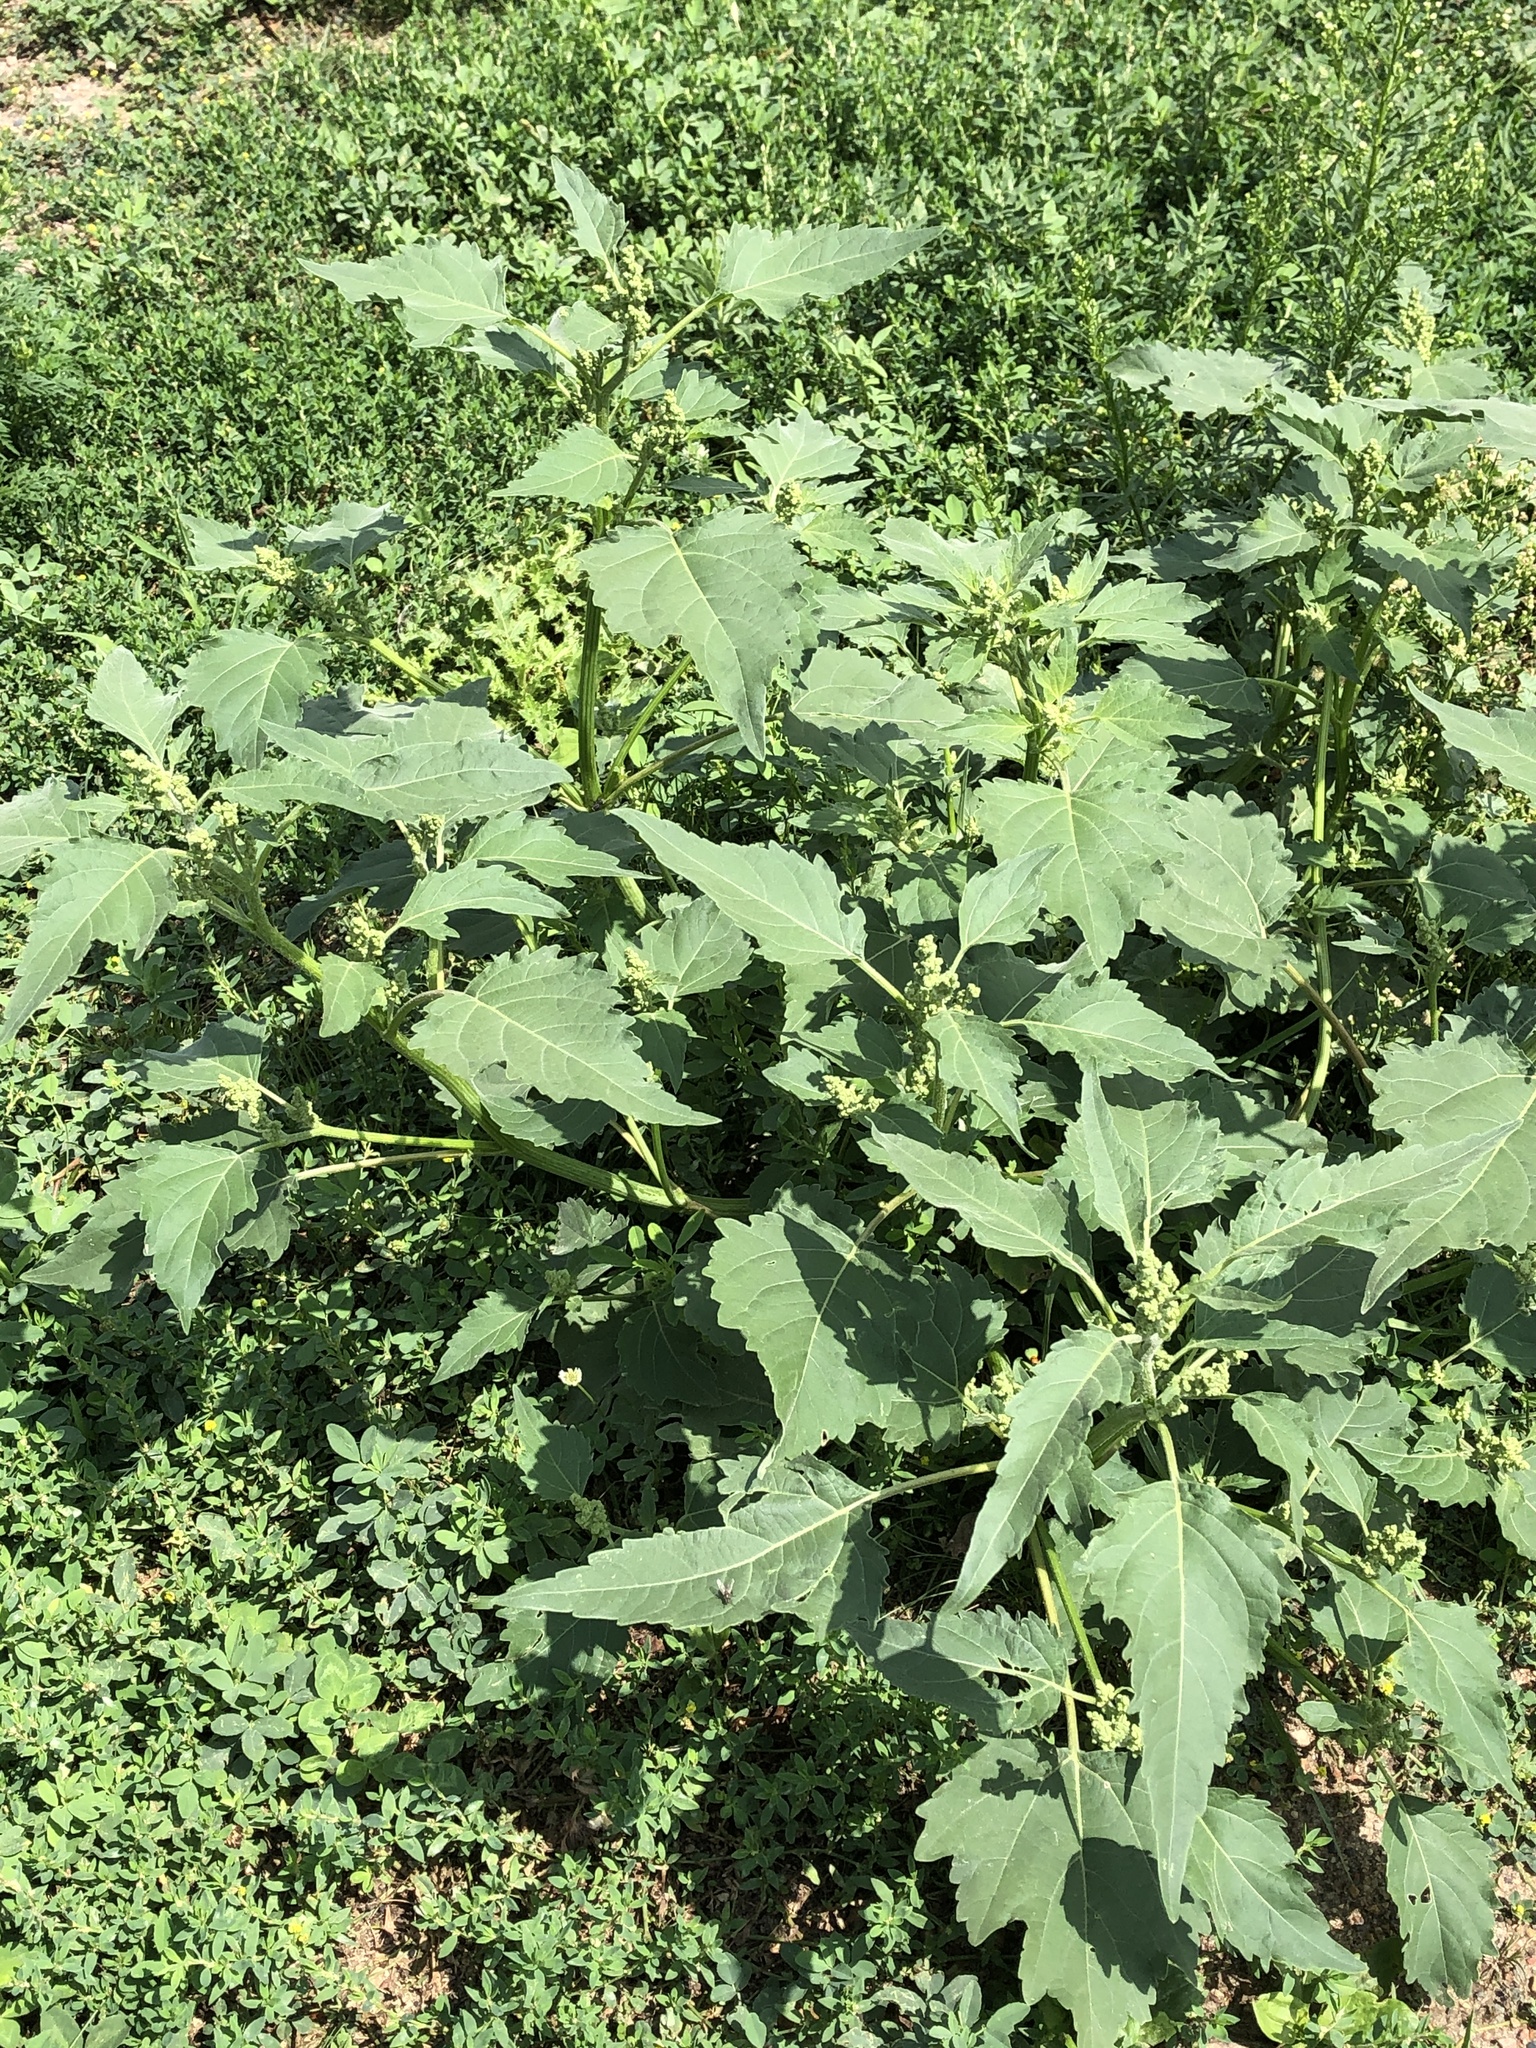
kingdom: Plantae
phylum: Tracheophyta
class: Magnoliopsida
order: Asterales
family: Asteraceae
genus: Cyclachaena
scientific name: Cyclachaena xanthiifolia
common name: Giant sumpweed
